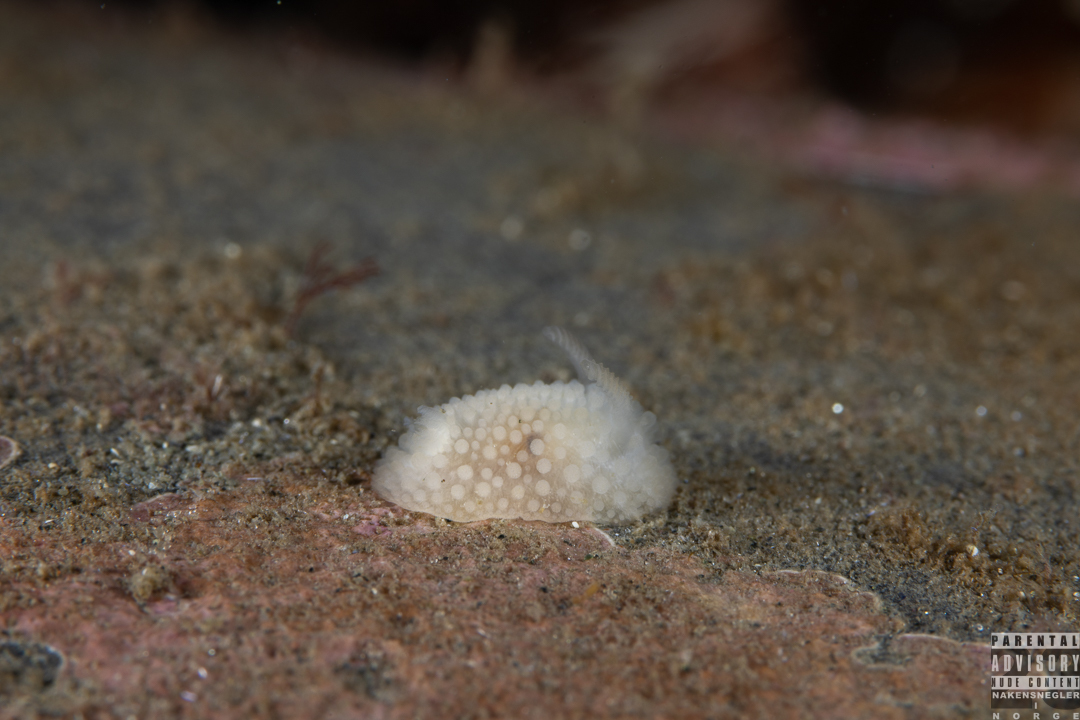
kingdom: Animalia
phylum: Mollusca
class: Gastropoda
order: Nudibranchia
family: Onchidorididae
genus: Onchidoris
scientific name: Onchidoris muricata
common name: Rough doris
